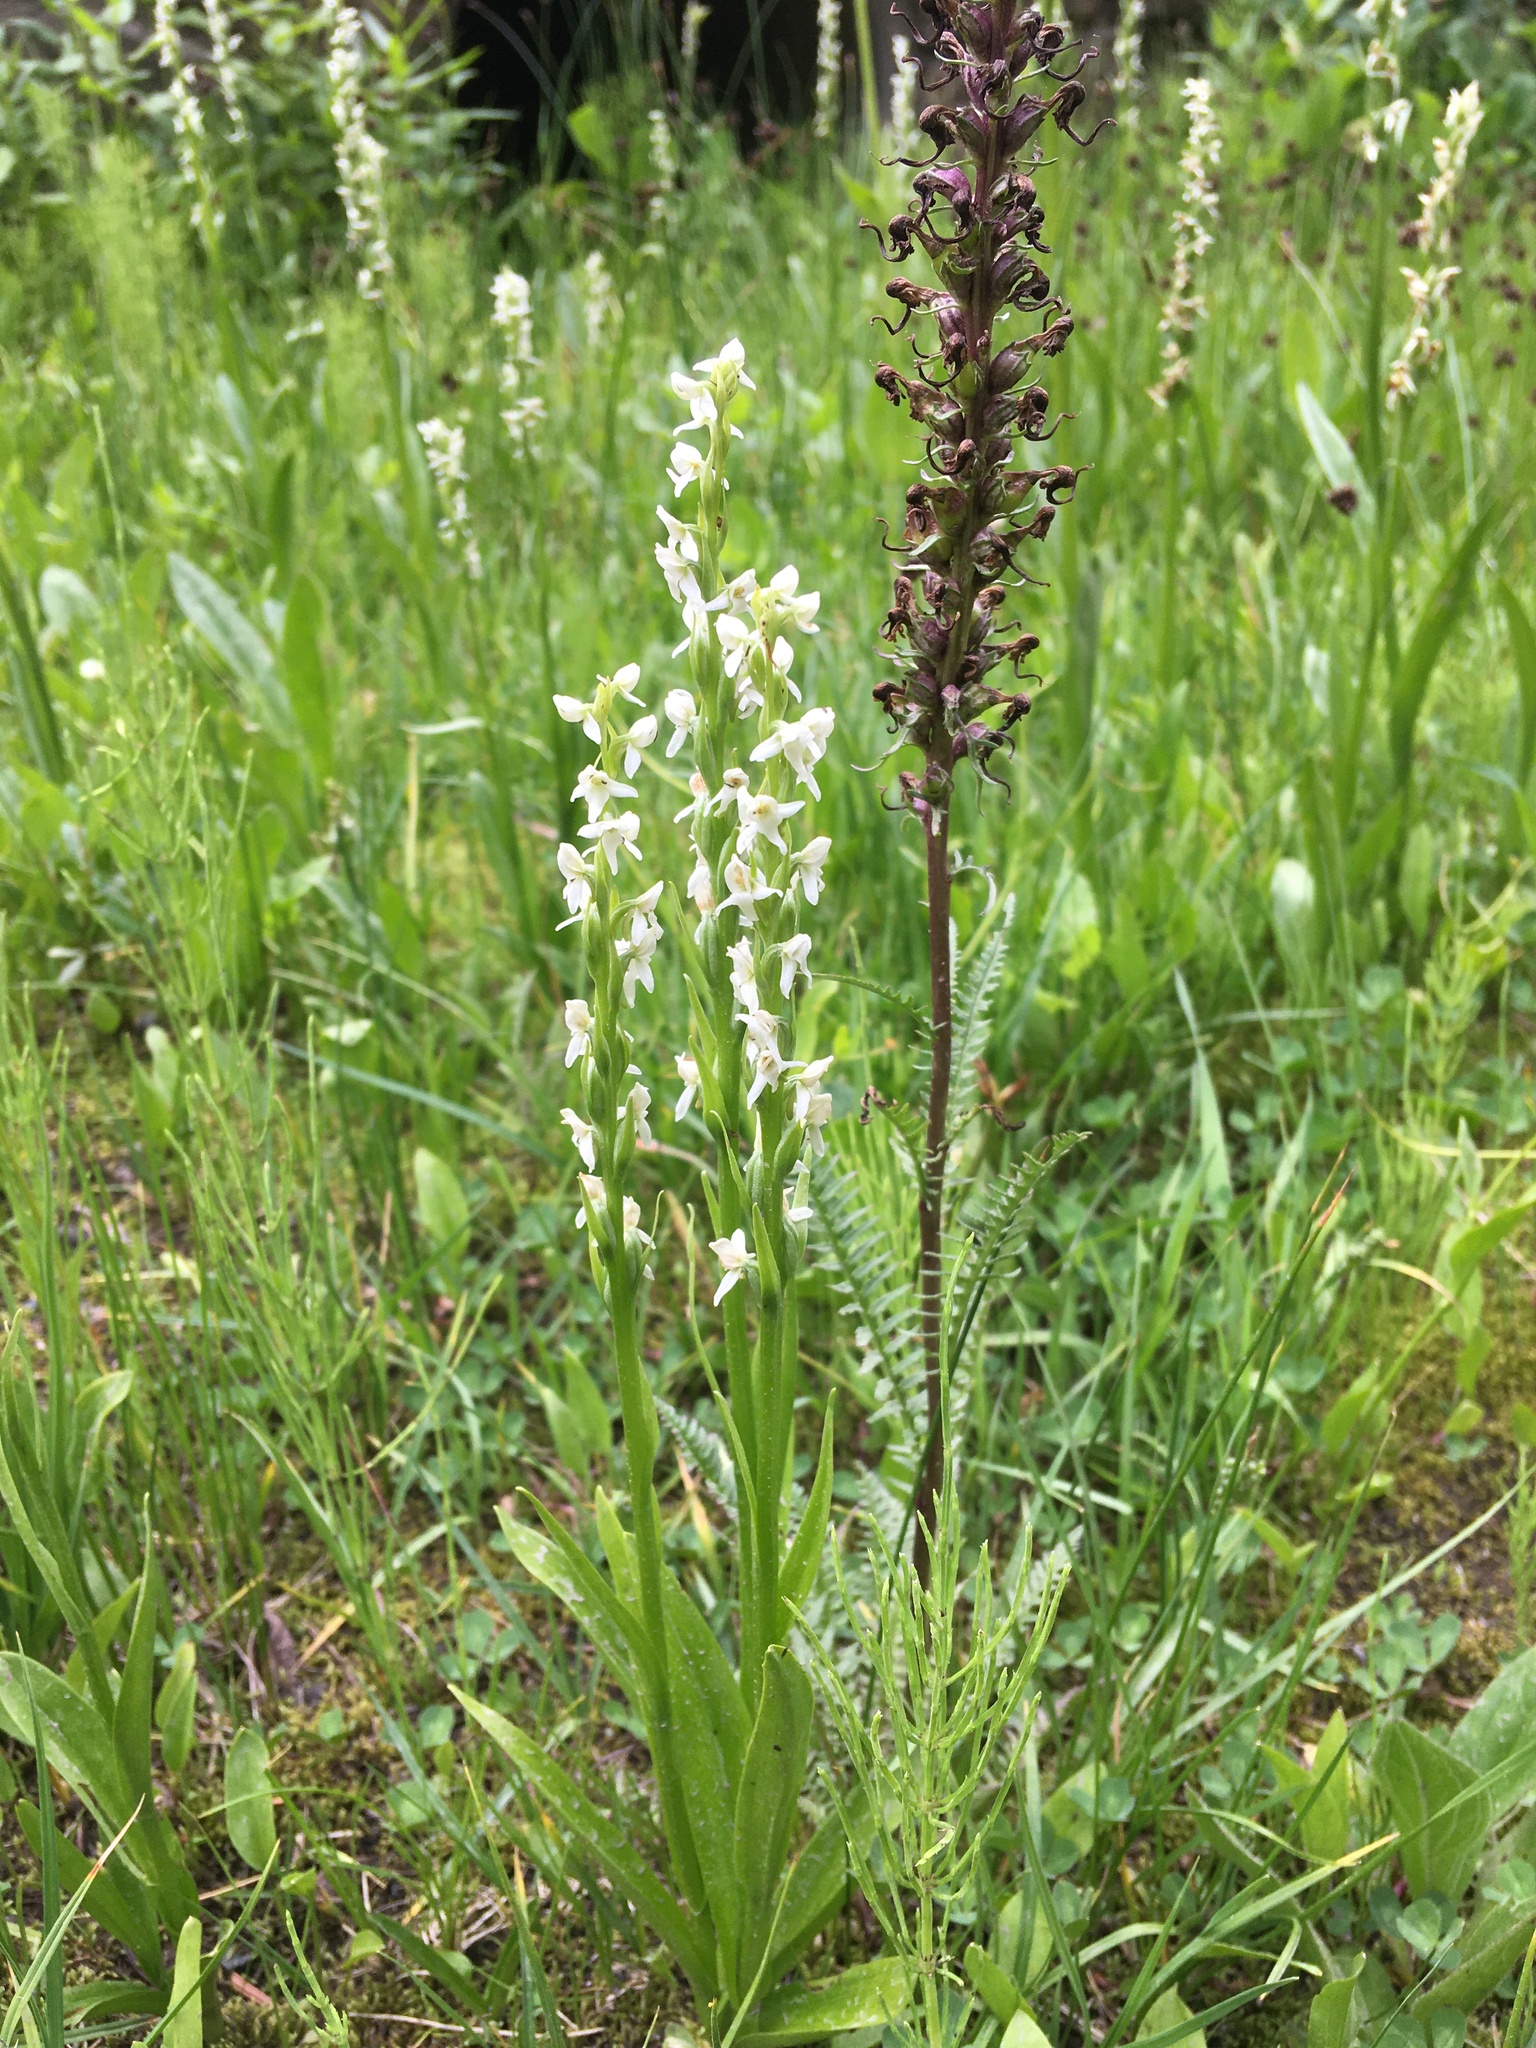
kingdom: Plantae
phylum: Tracheophyta
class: Liliopsida
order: Asparagales
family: Orchidaceae
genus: Platanthera
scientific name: Platanthera dilatata
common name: Bog candles
